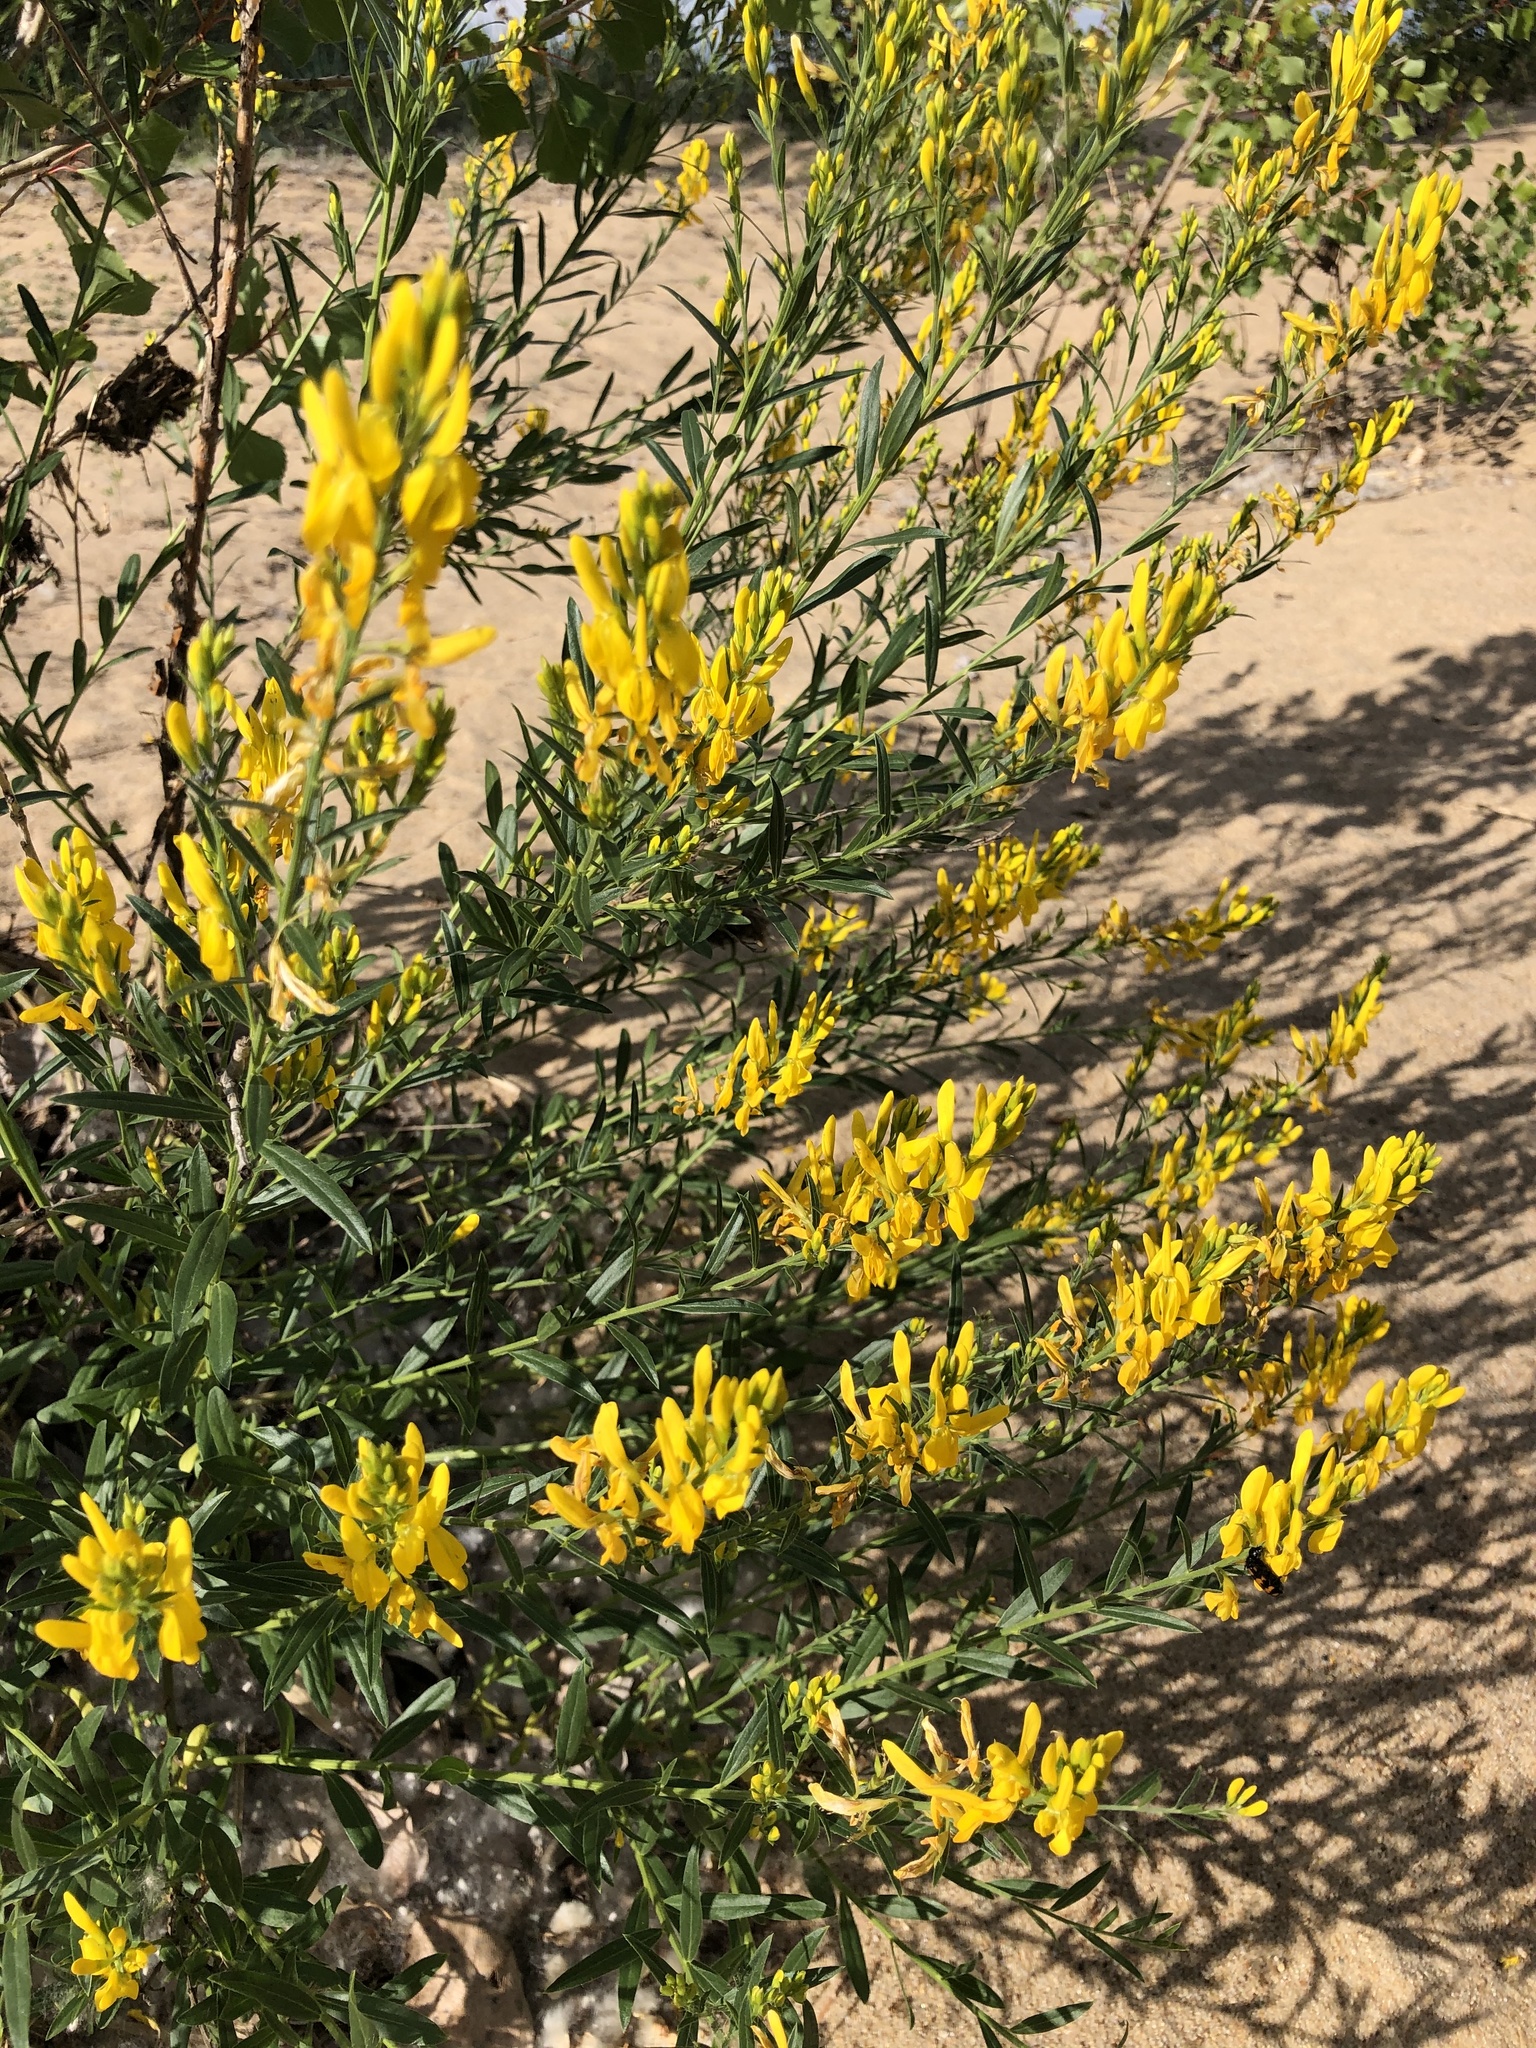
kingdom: Plantae
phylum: Tracheophyta
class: Magnoliopsida
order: Fabales
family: Fabaceae
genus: Genista
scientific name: Genista tinctoria
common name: Dyer's greenweed
